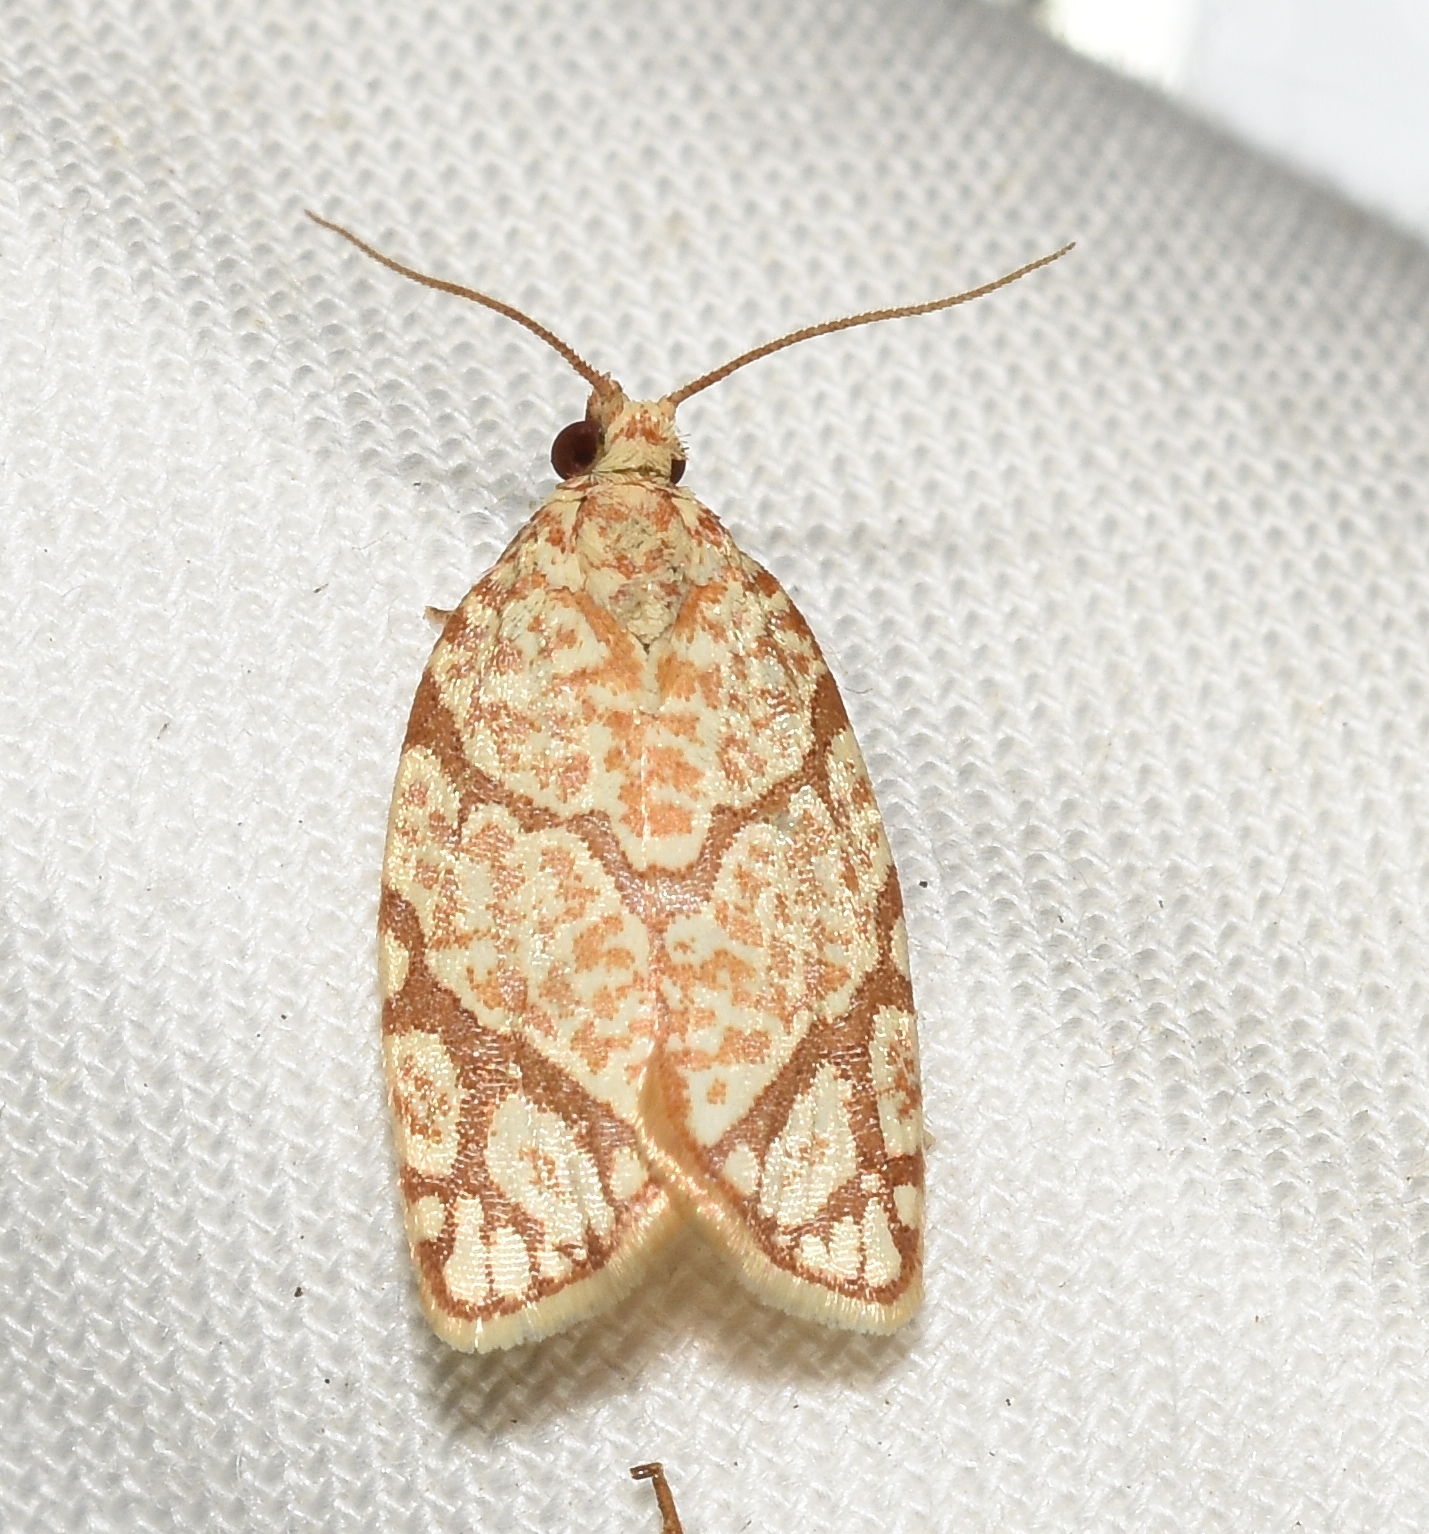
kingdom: Animalia
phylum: Arthropoda
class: Insecta
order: Lepidoptera
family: Tortricidae
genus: Argyrotaenia
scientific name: Argyrotaenia quercifoliana
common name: Yellow-winged oak leafroller moth
